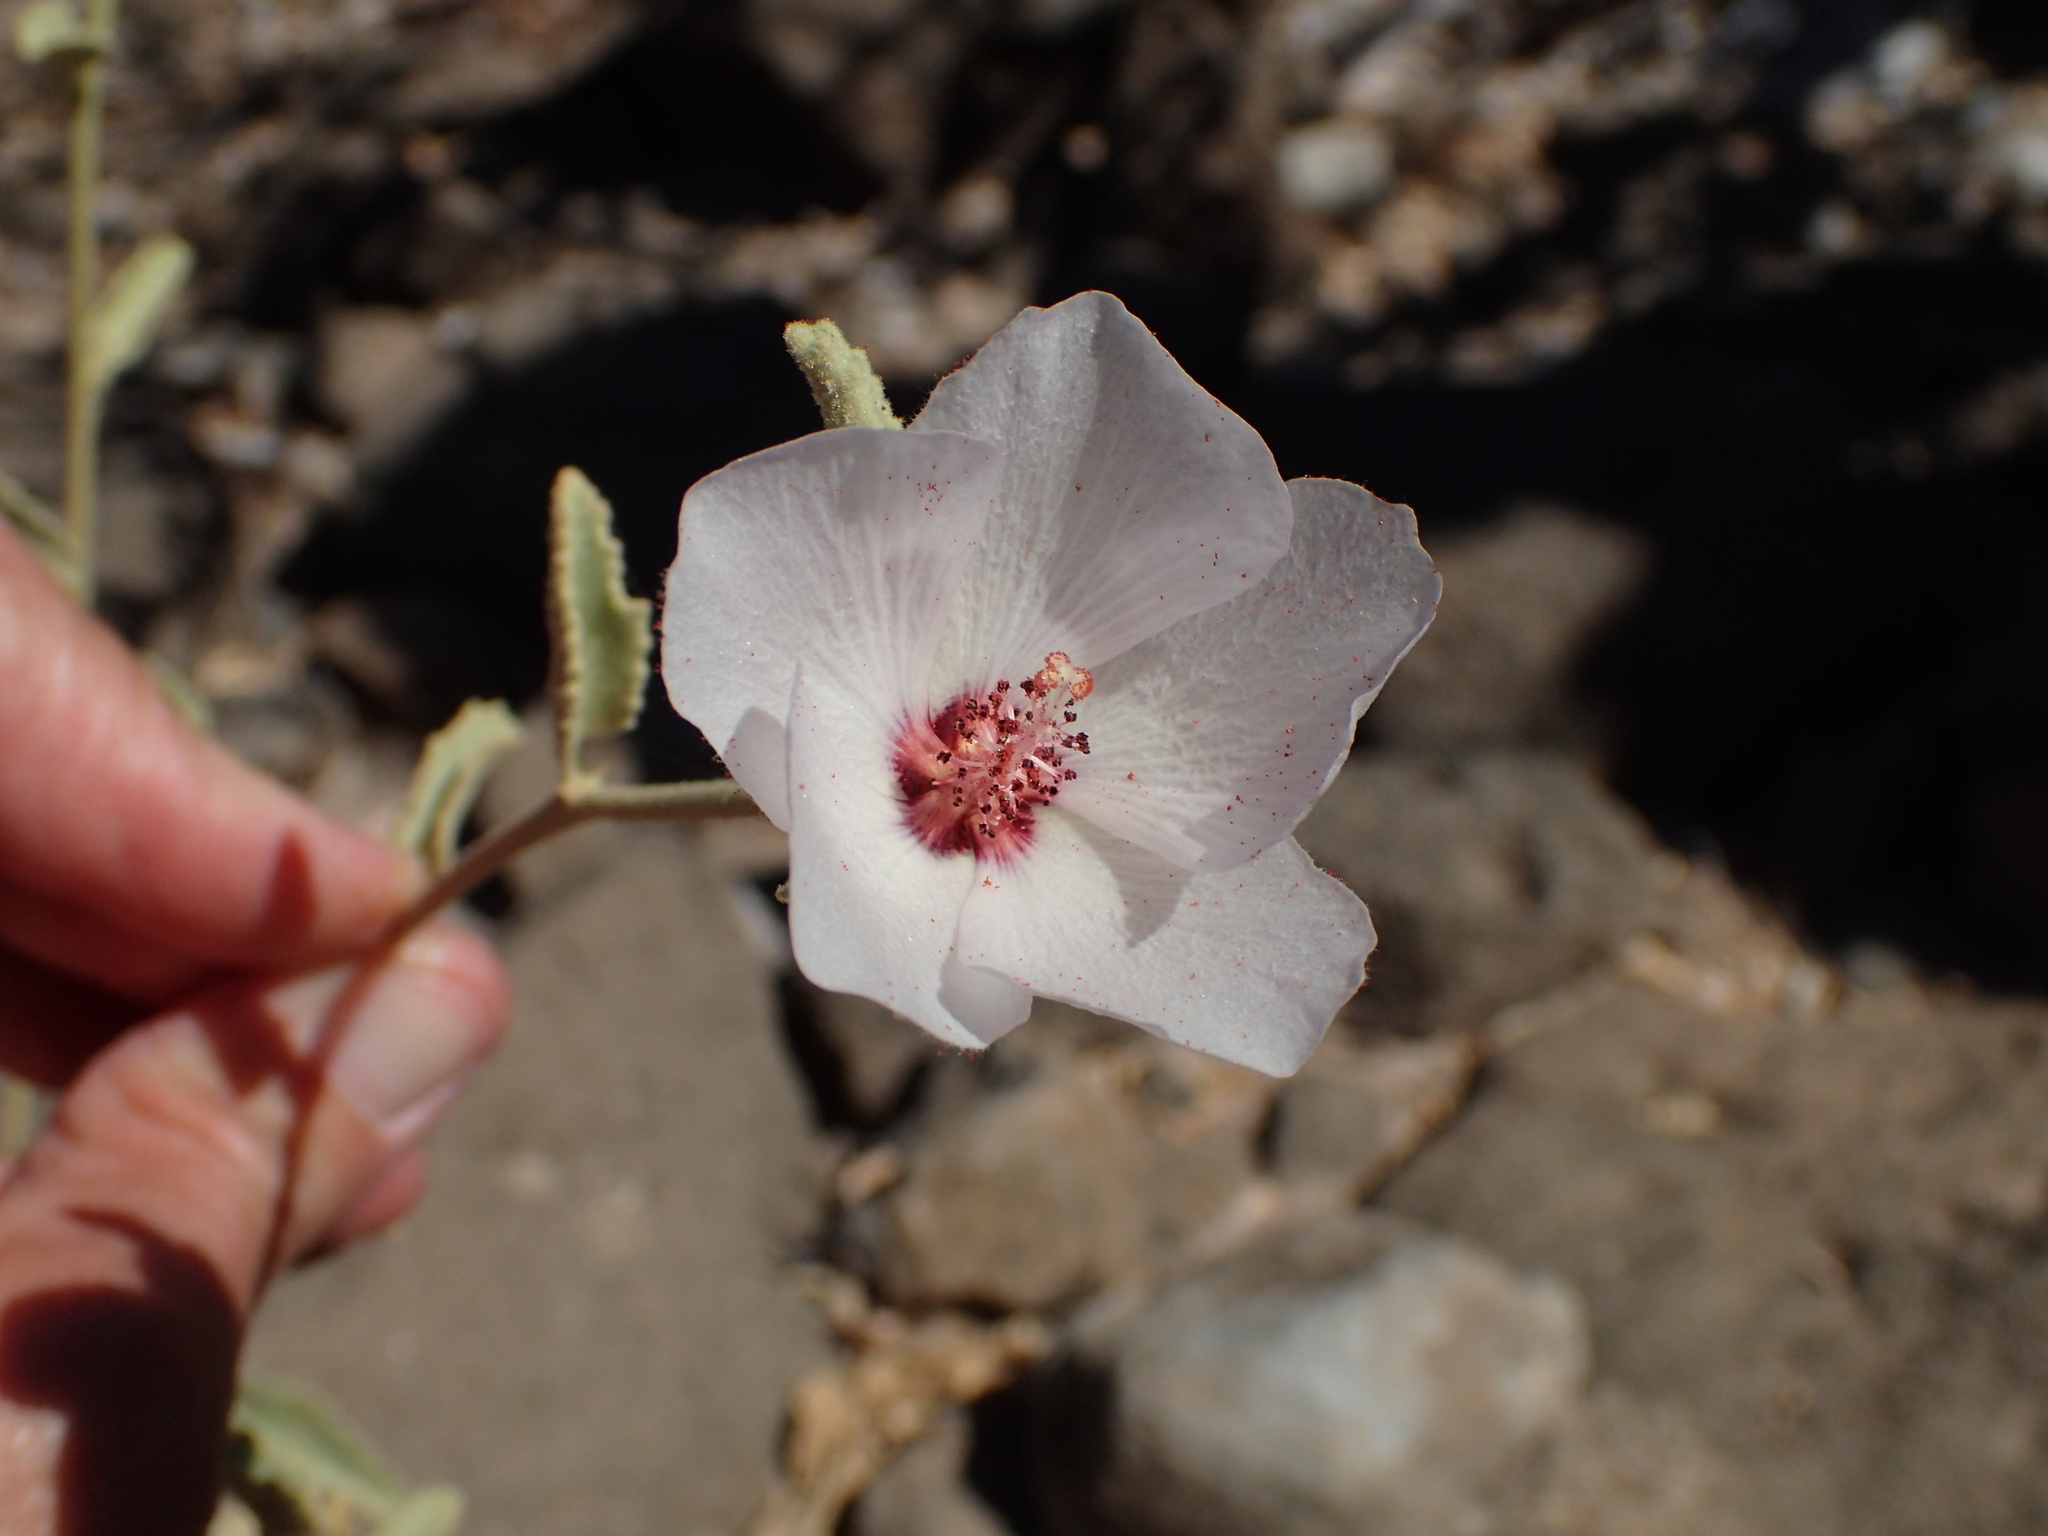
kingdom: Plantae
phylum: Tracheophyta
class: Magnoliopsida
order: Malvales
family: Malvaceae
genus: Hibiscus
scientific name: Hibiscus denudatus
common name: Paleface
